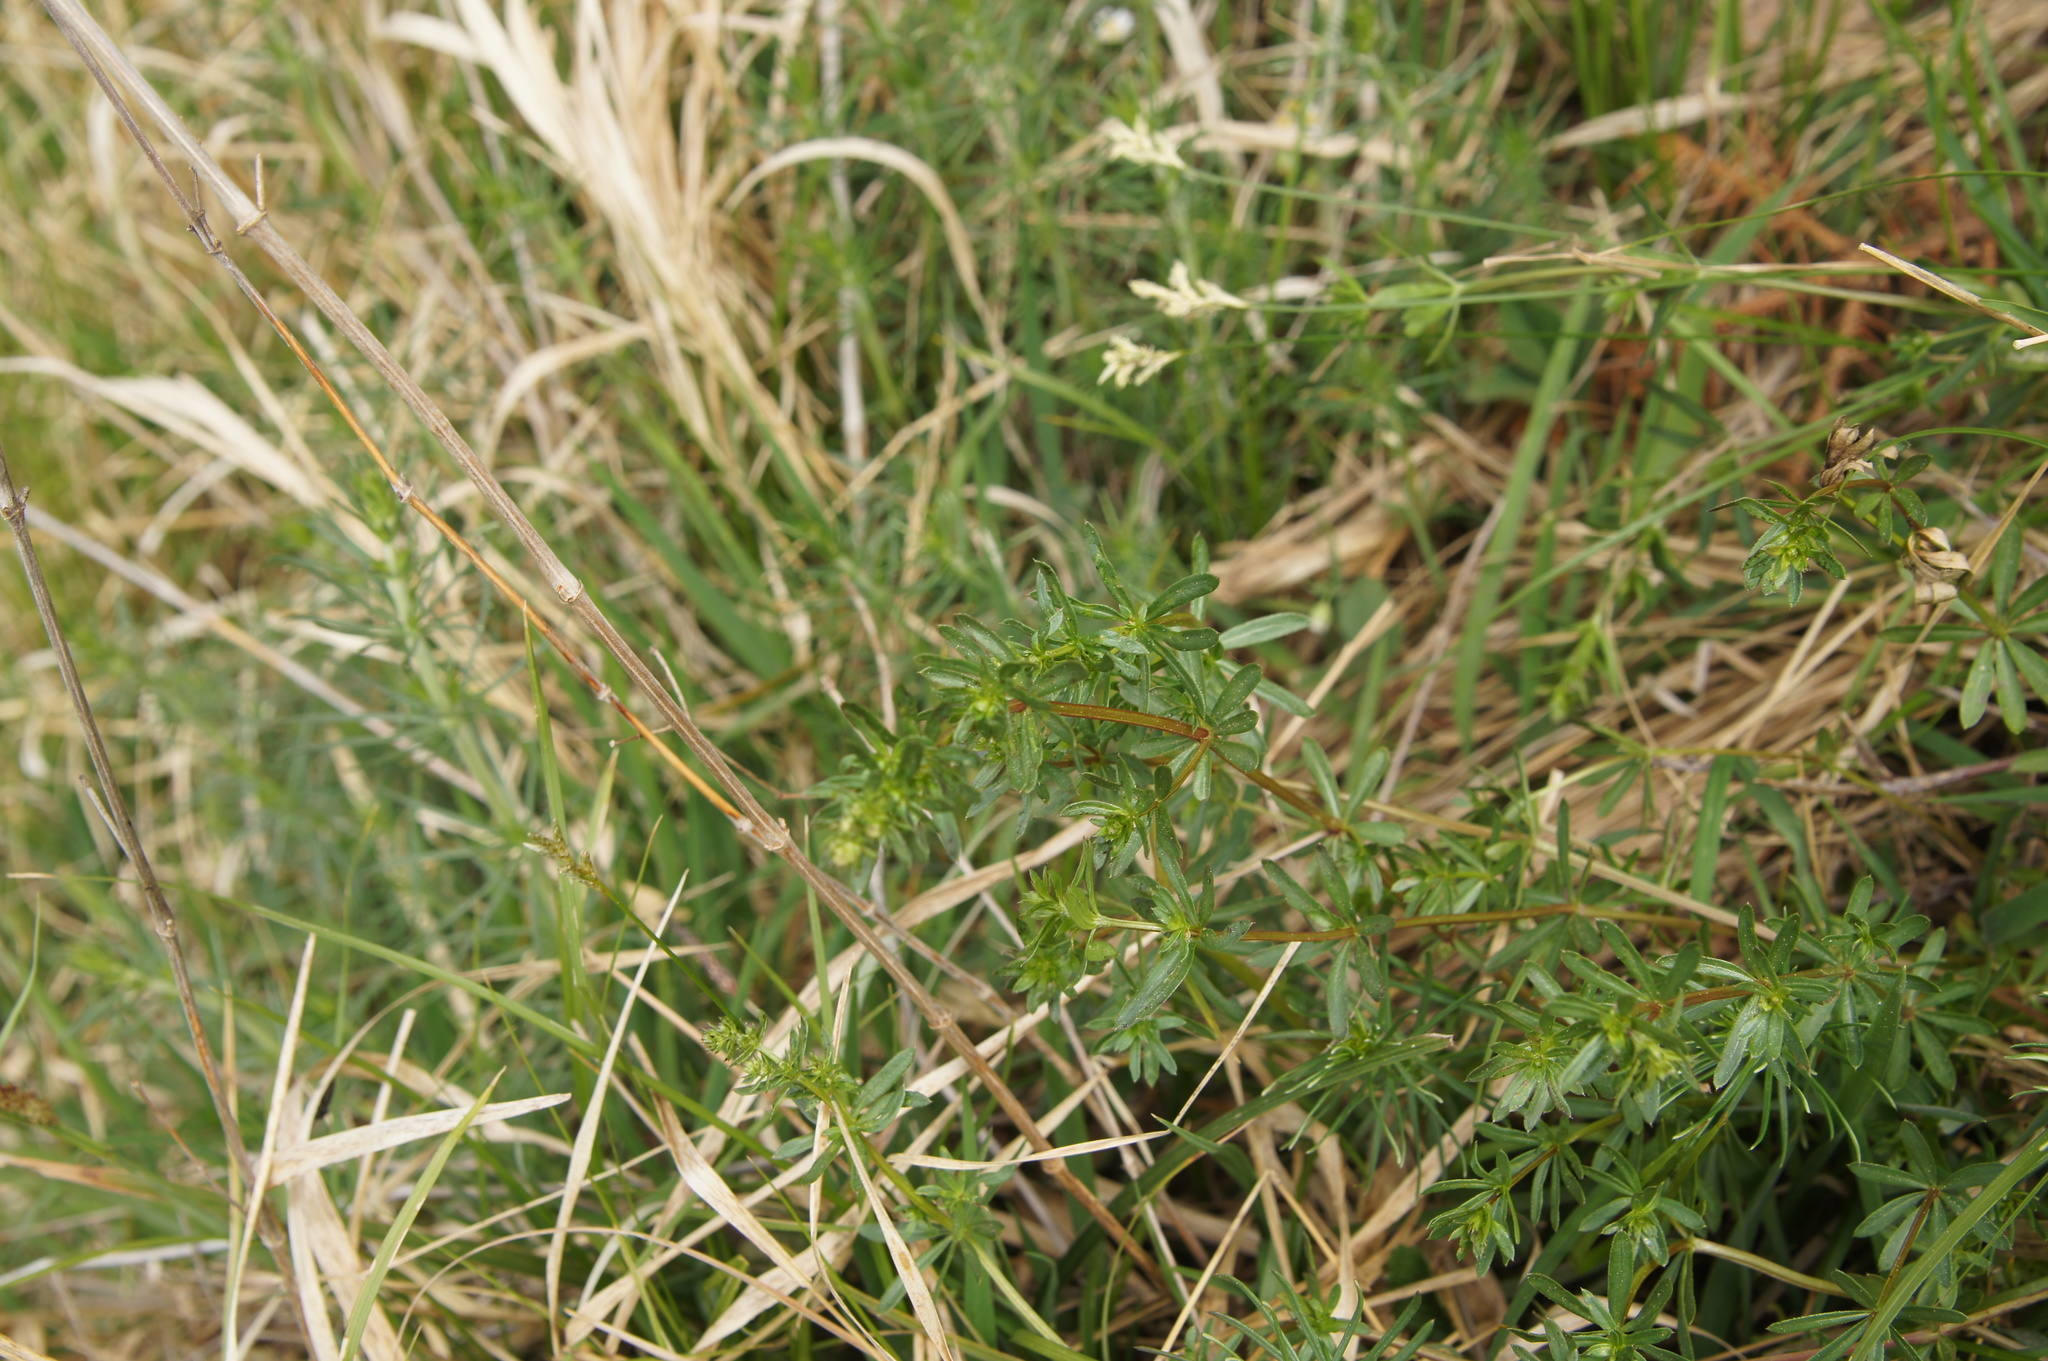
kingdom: Plantae
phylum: Tracheophyta
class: Magnoliopsida
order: Gentianales
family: Rubiaceae
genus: Galium
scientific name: Galium mollugo
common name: Hedge bedstraw
